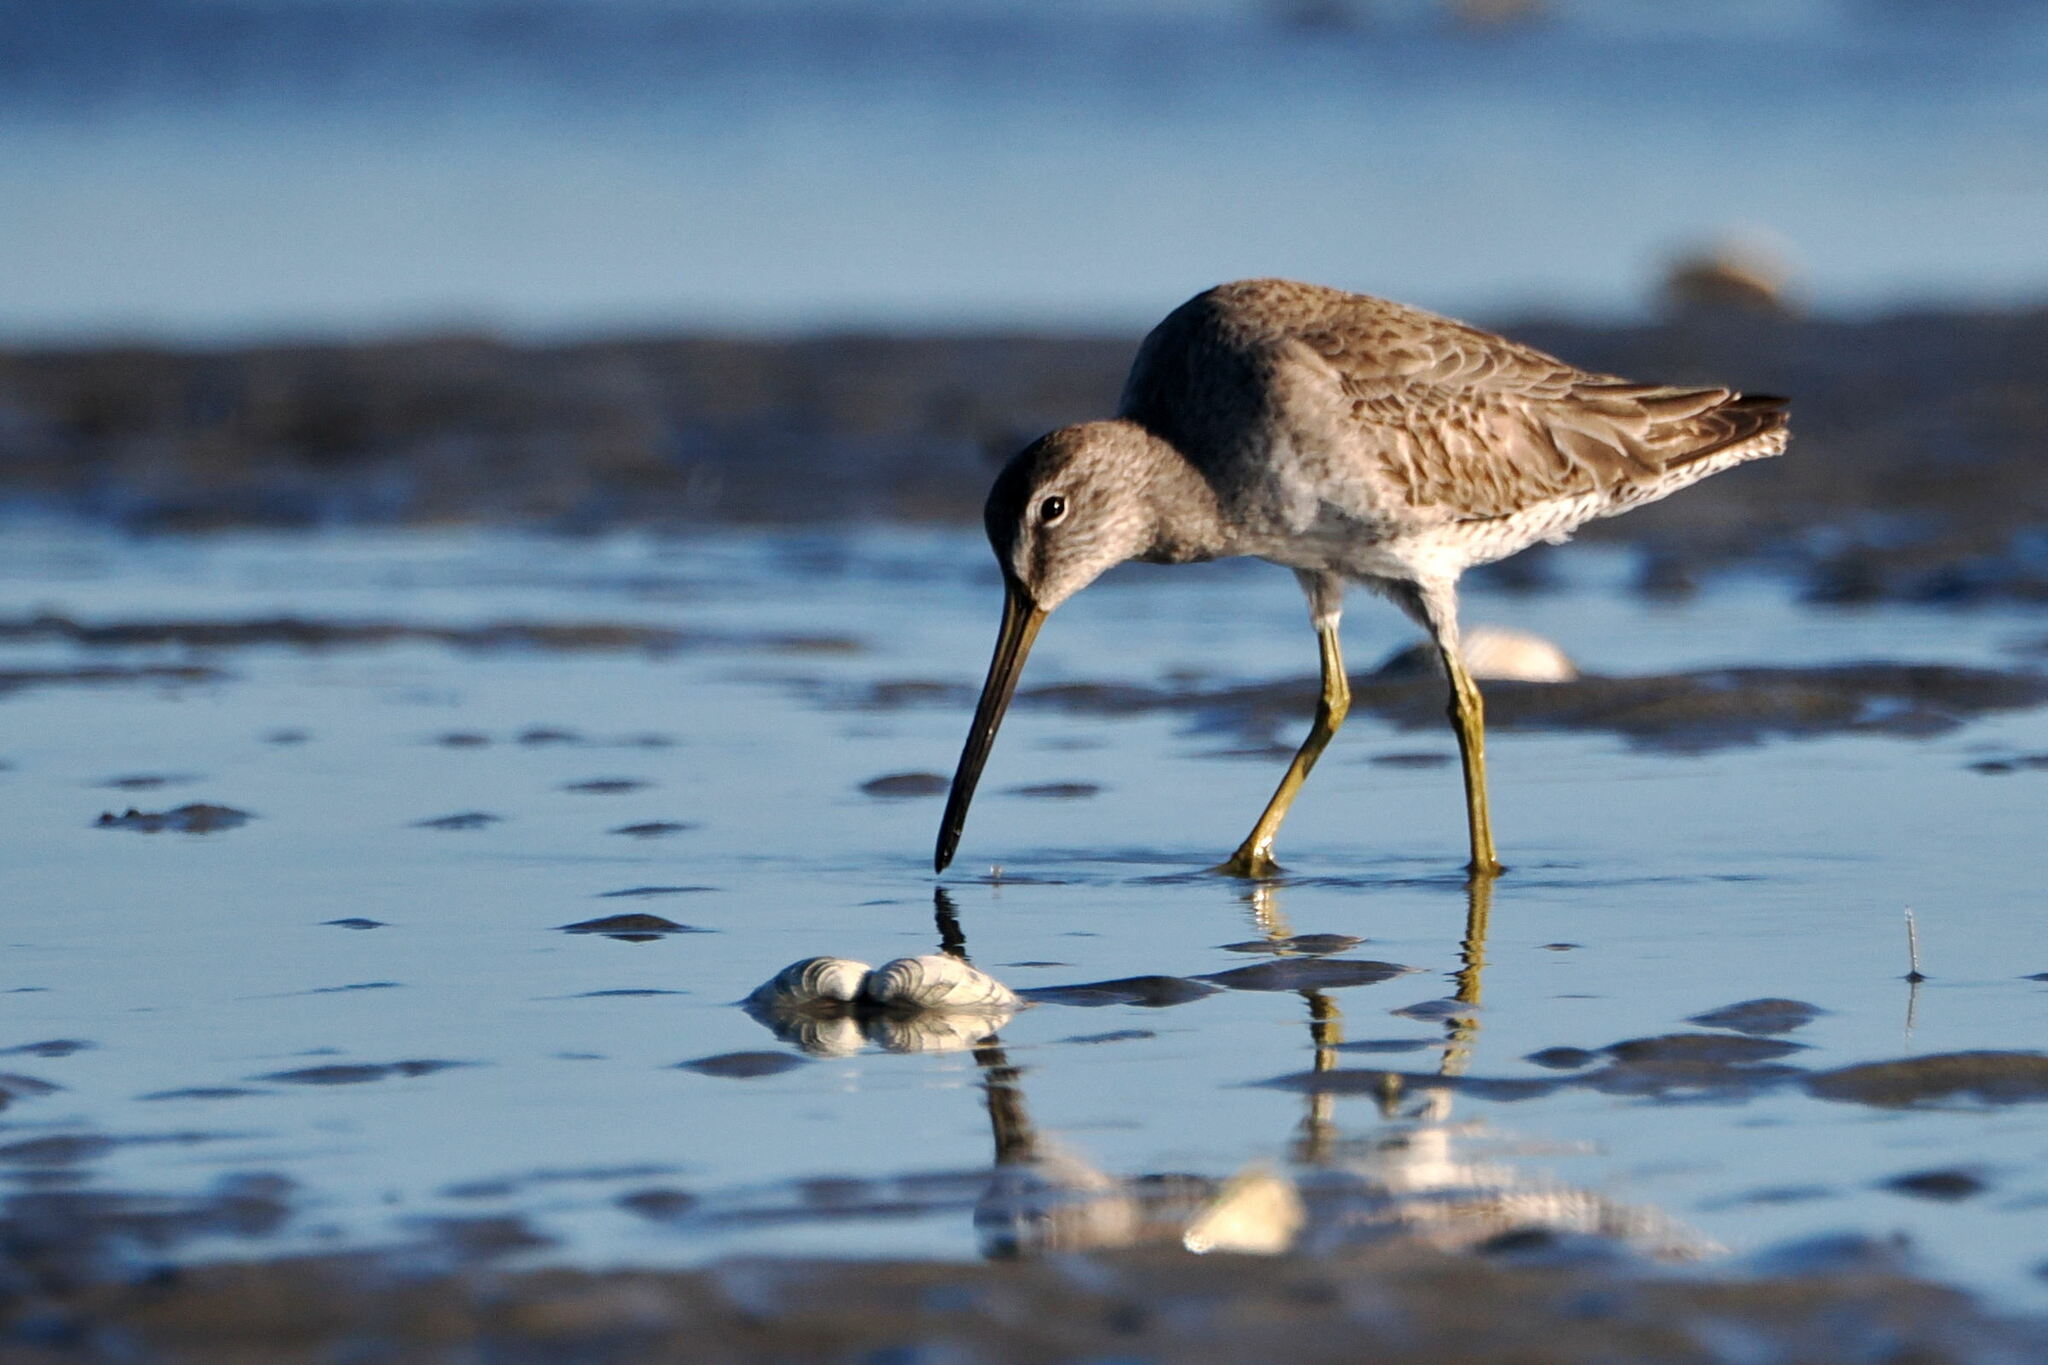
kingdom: Animalia
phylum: Chordata
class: Aves
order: Charadriiformes
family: Scolopacidae
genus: Limnodromus
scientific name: Limnodromus griseus
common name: Short-billed dowitcher
